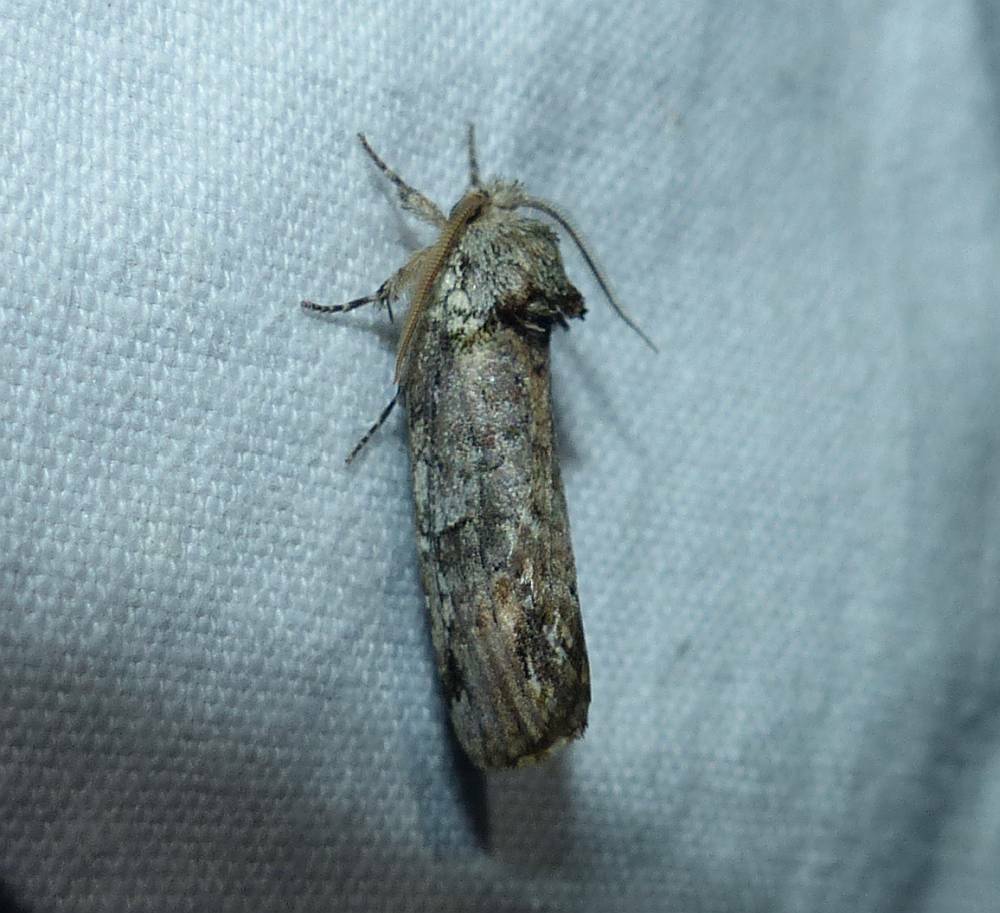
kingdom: Animalia
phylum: Arthropoda
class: Insecta
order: Lepidoptera
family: Notodontidae
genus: Schizura
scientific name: Schizura
